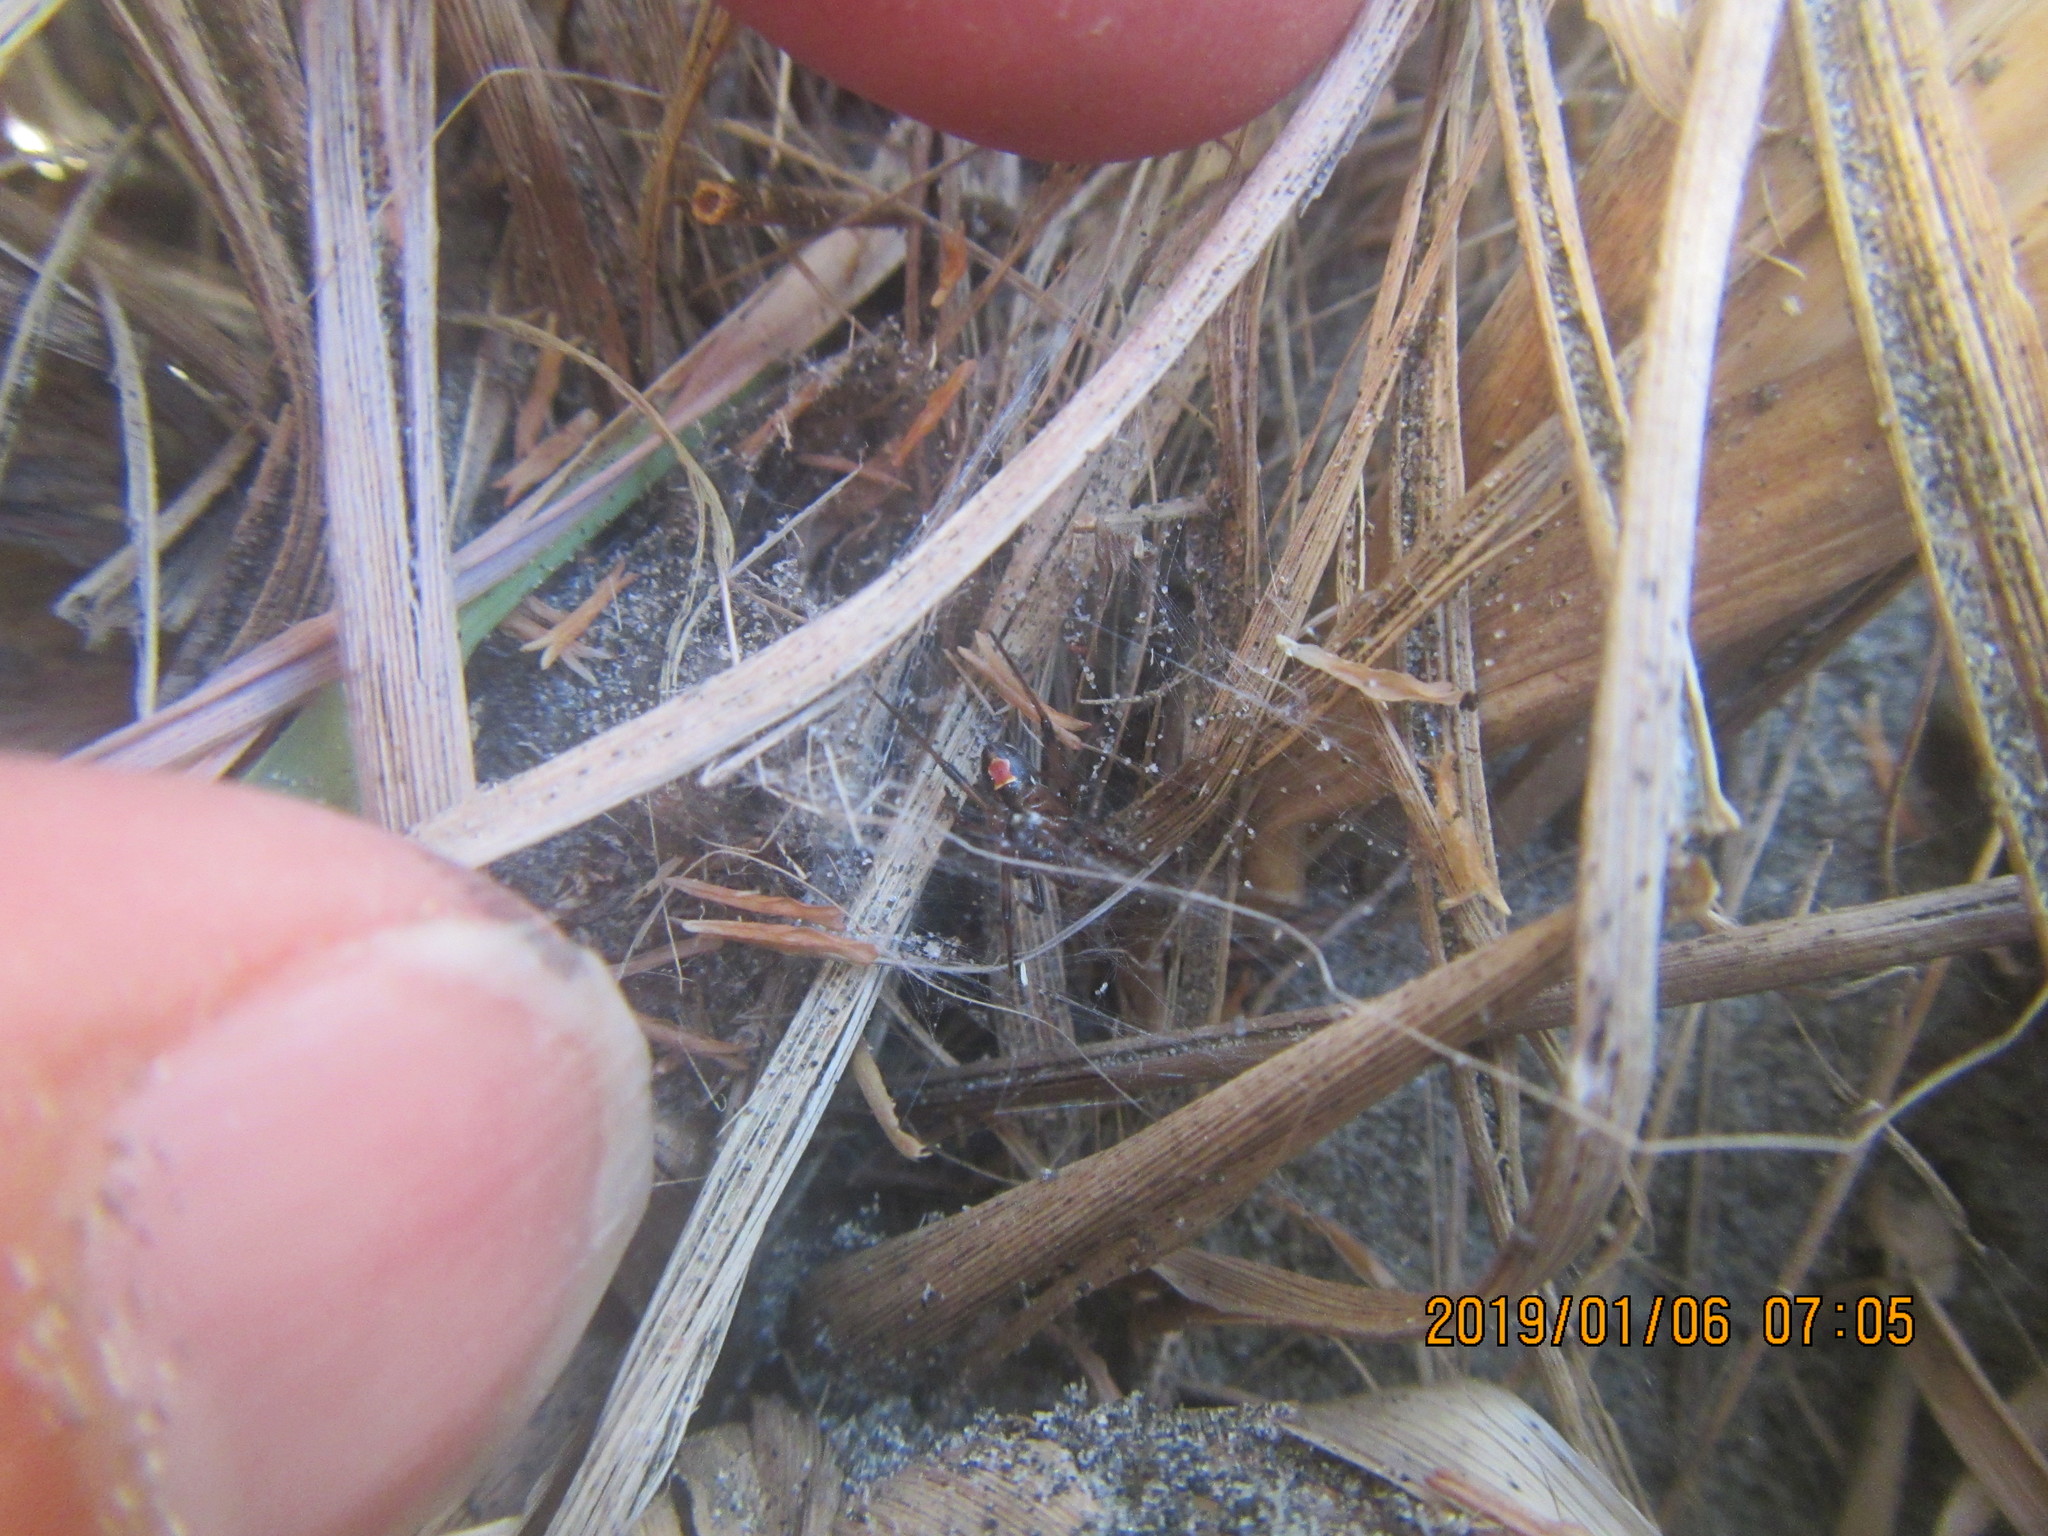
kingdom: Animalia
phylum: Arthropoda
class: Arachnida
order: Araneae
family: Theridiidae
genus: Latrodectus
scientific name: Latrodectus katipo
